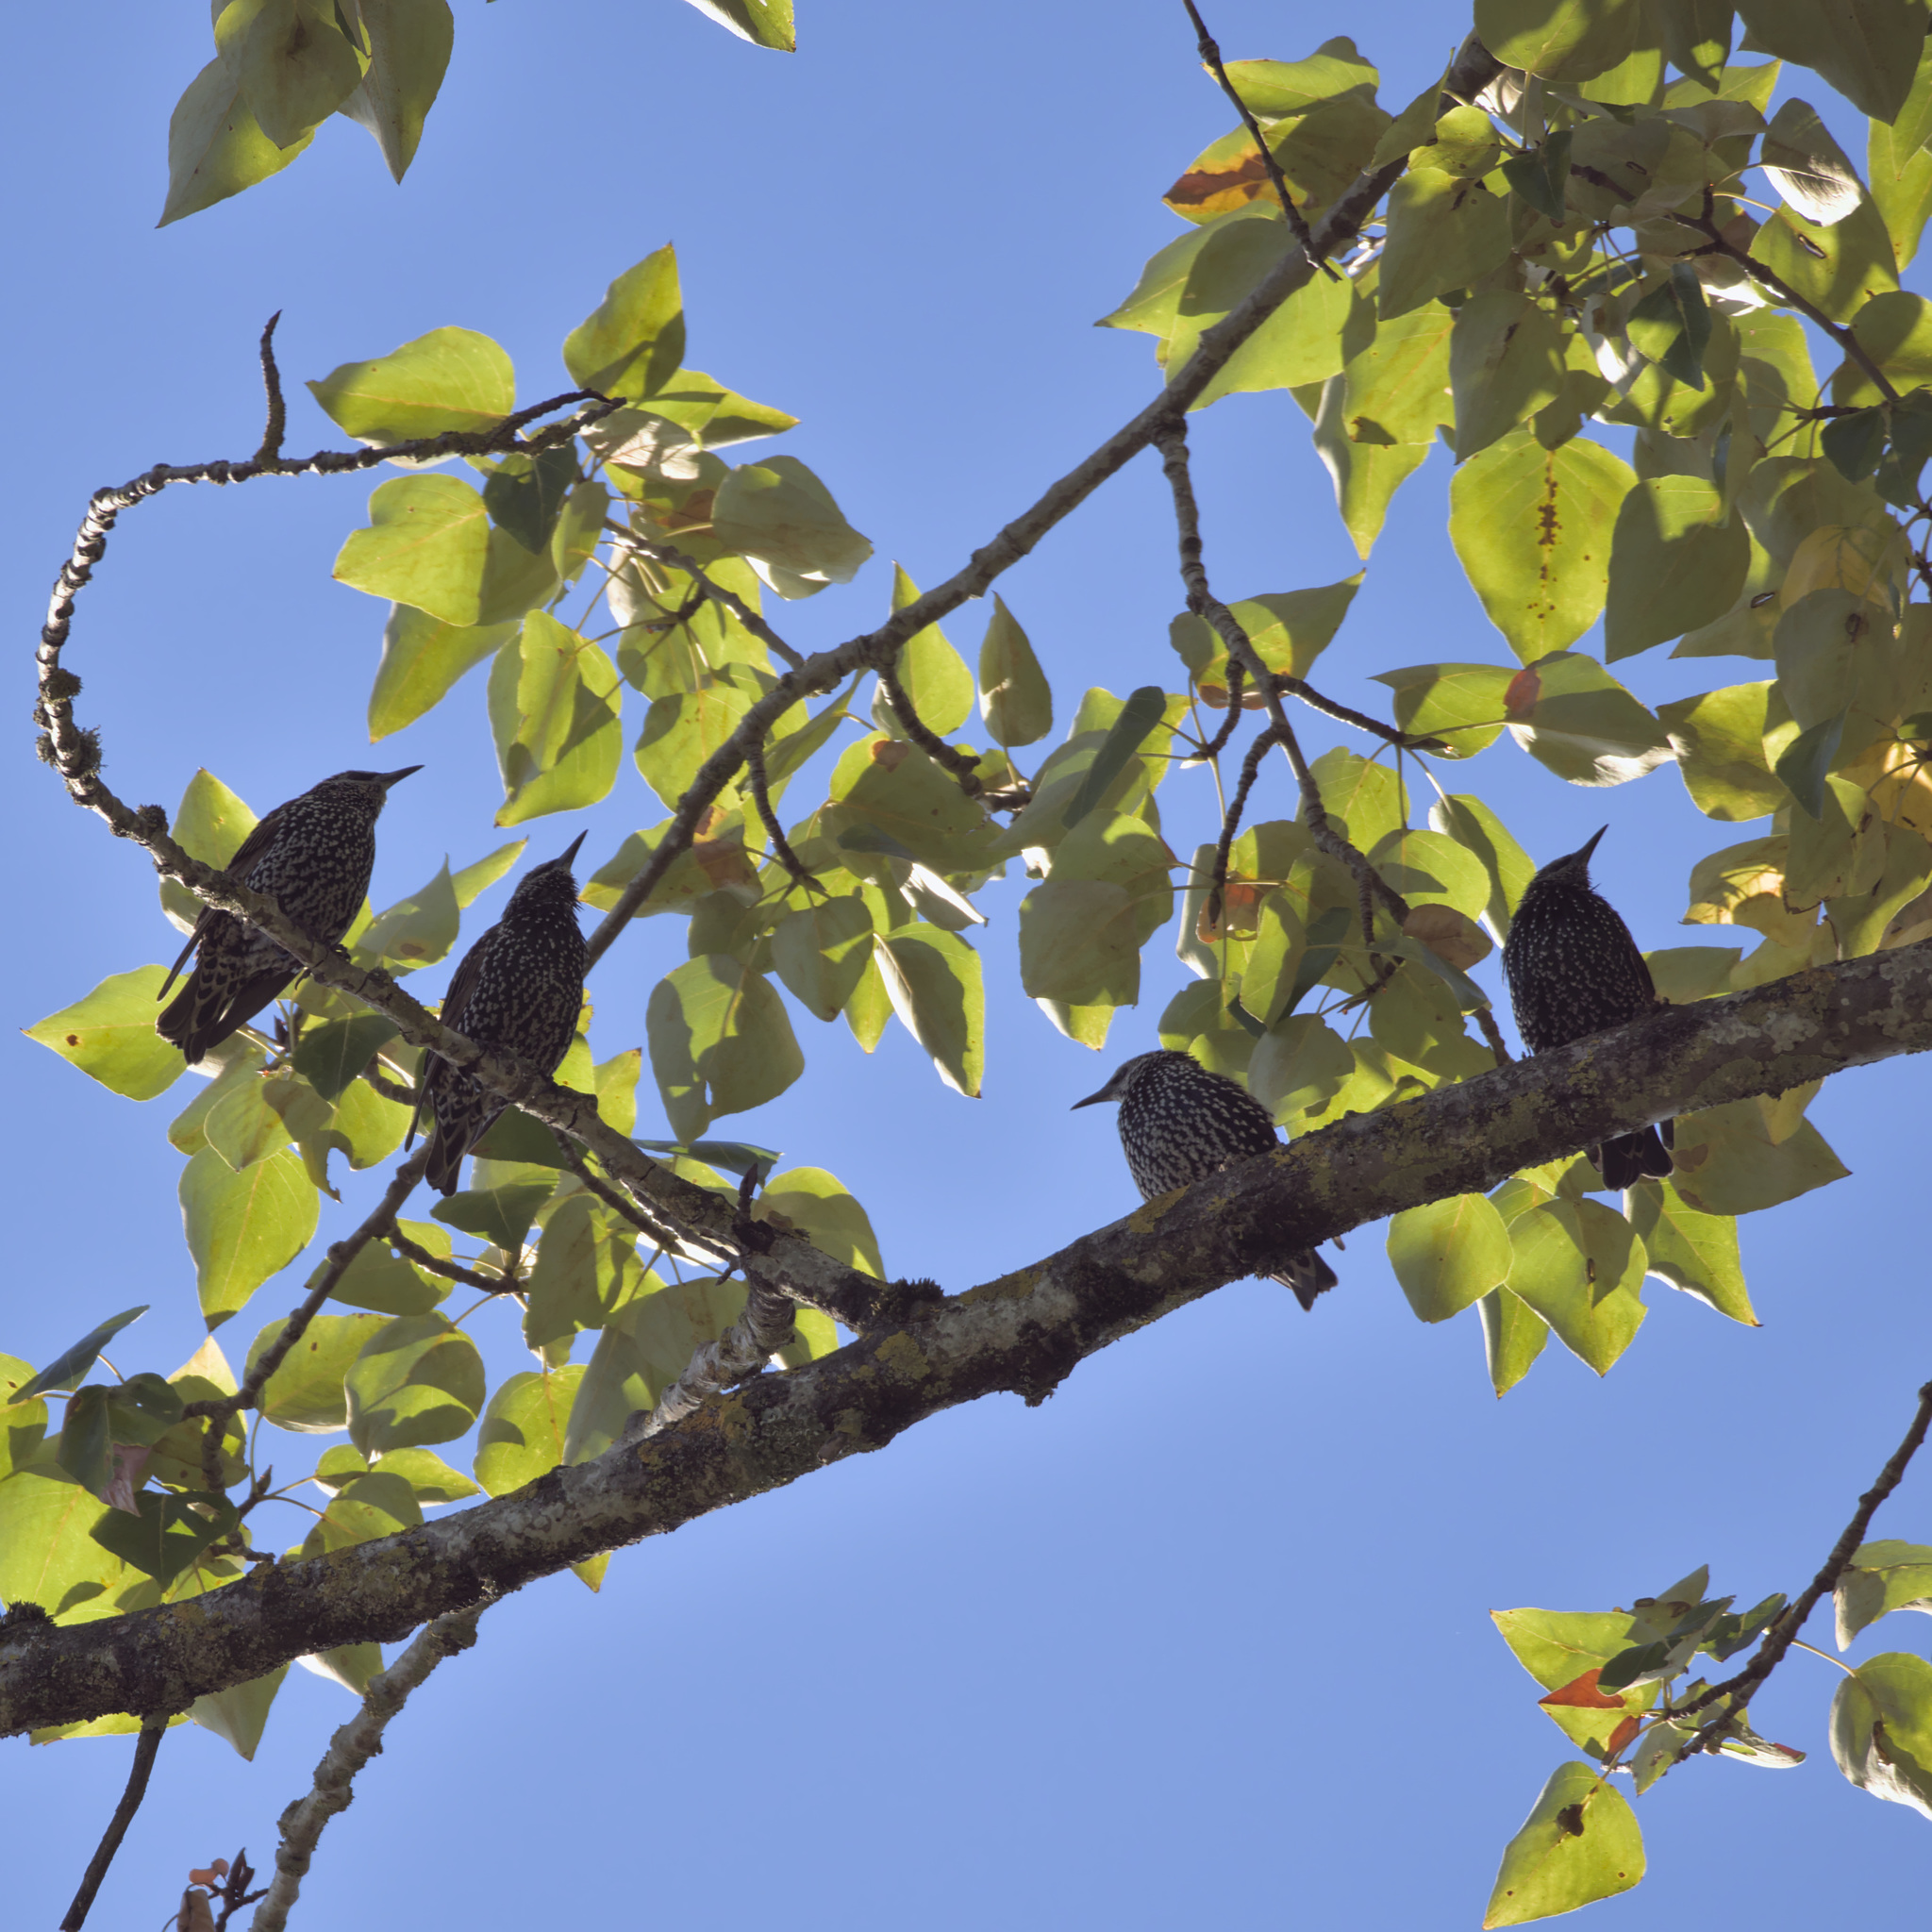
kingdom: Animalia
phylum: Chordata
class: Aves
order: Passeriformes
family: Sturnidae
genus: Sturnus
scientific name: Sturnus vulgaris
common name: Common starling
